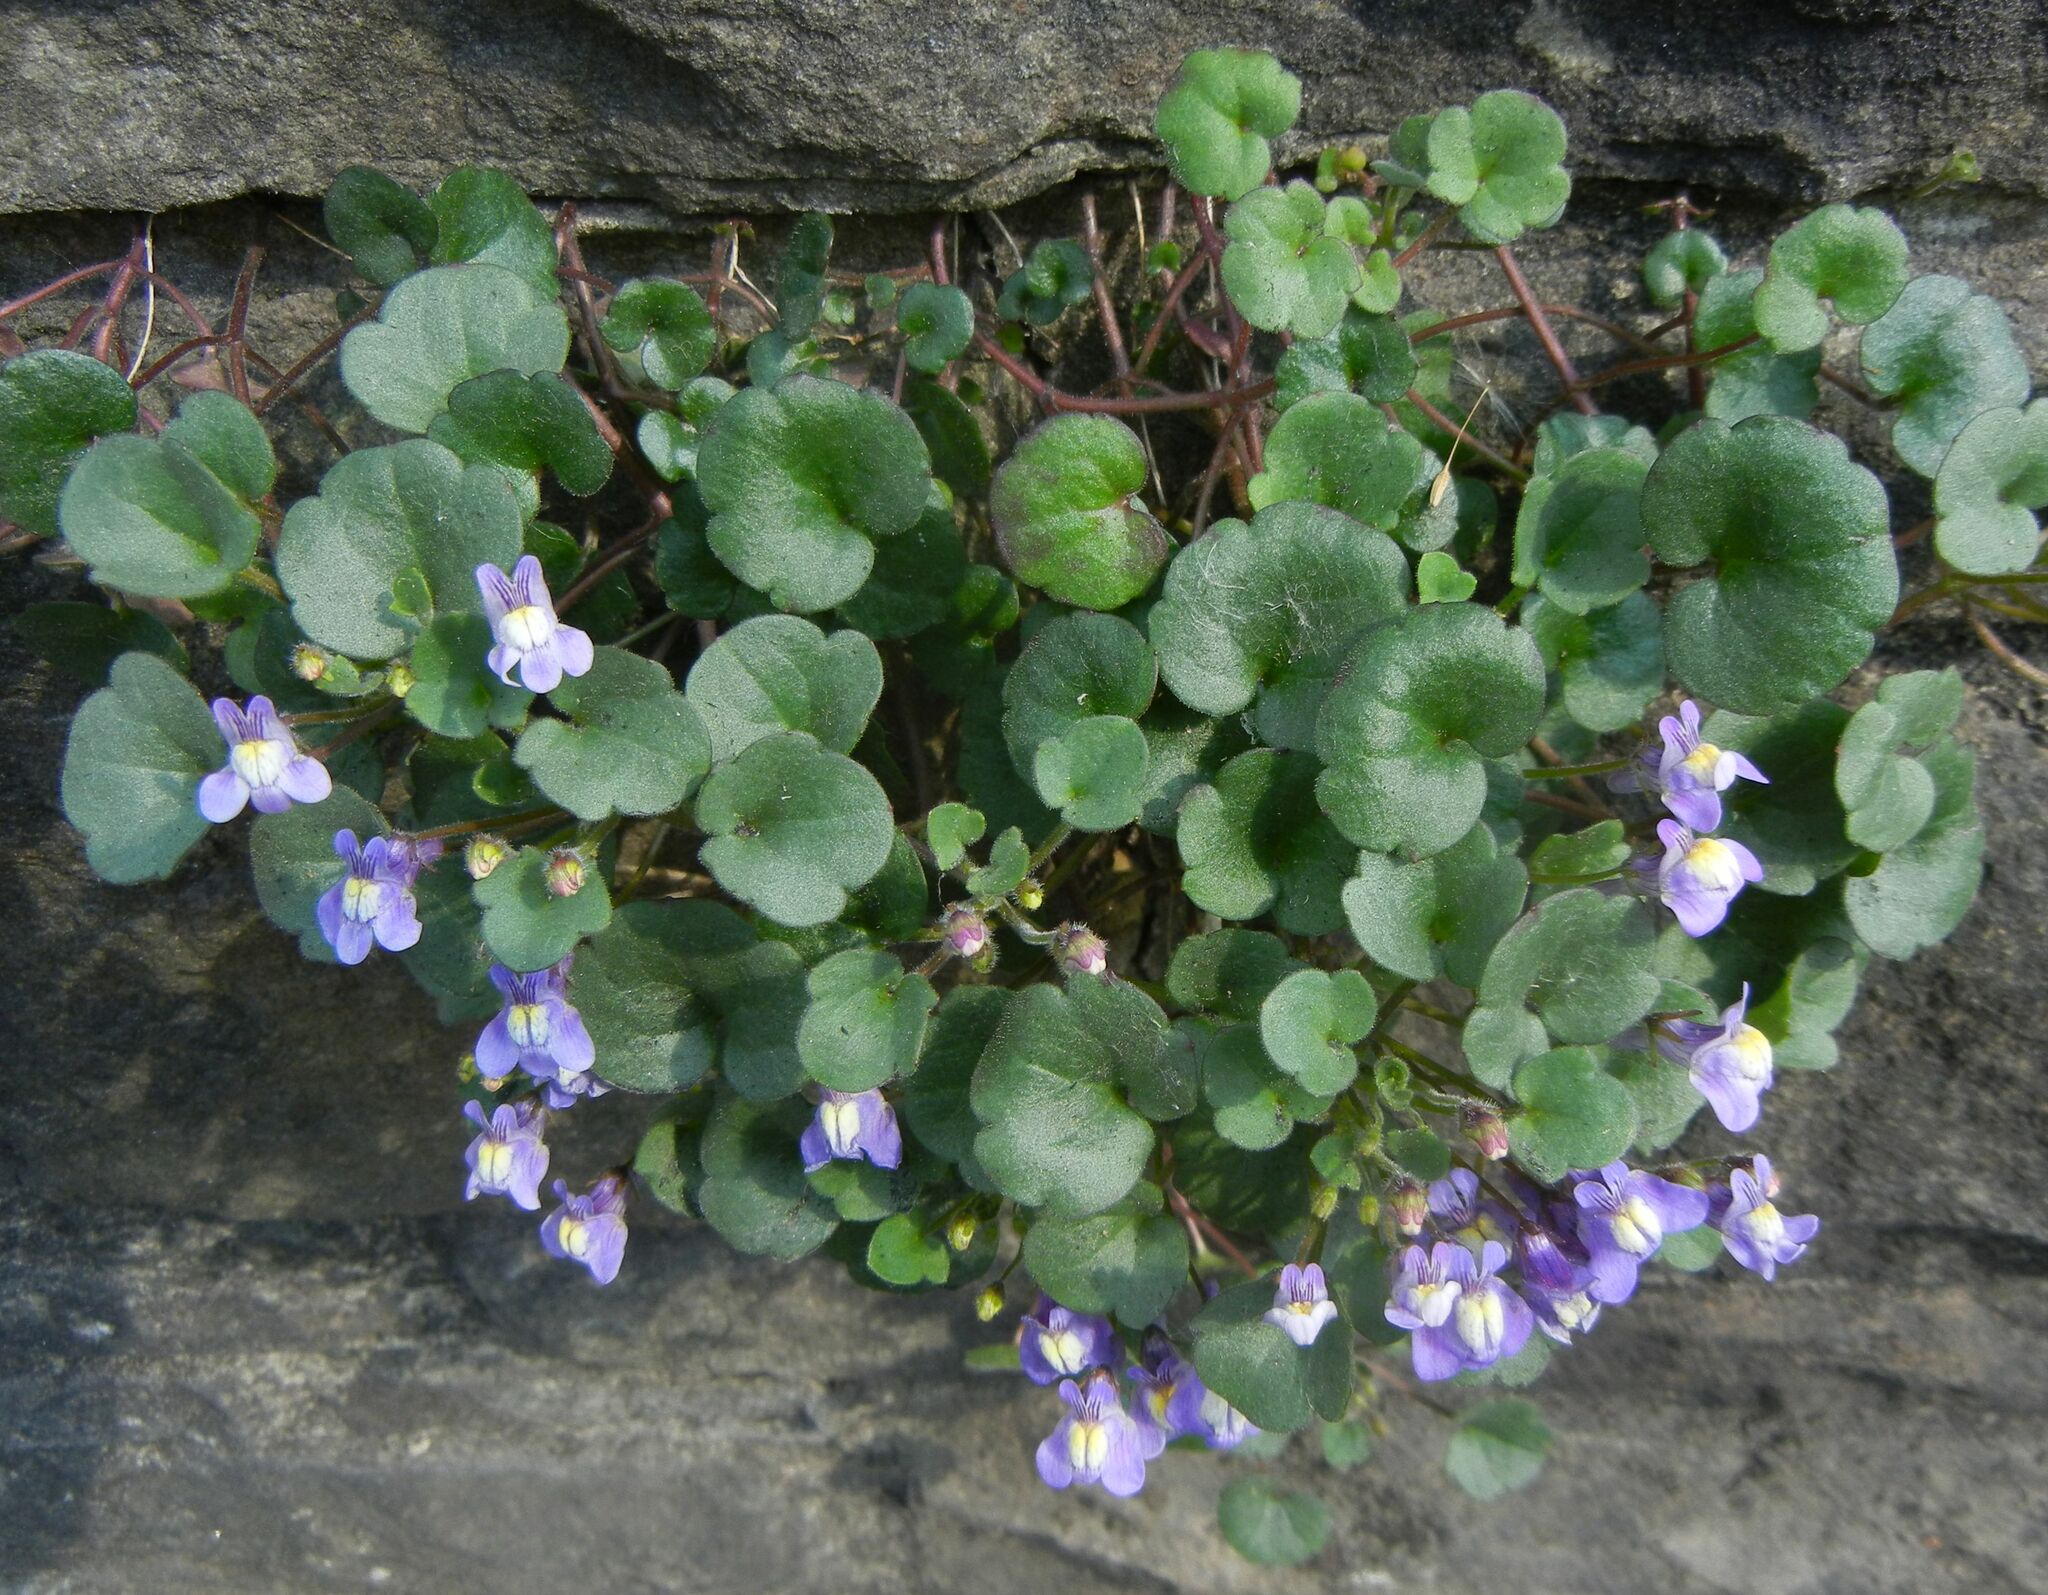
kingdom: Plantae
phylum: Tracheophyta
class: Magnoliopsida
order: Lamiales
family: Plantaginaceae
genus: Cymbalaria
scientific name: Cymbalaria pallida
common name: Italian toadflax
